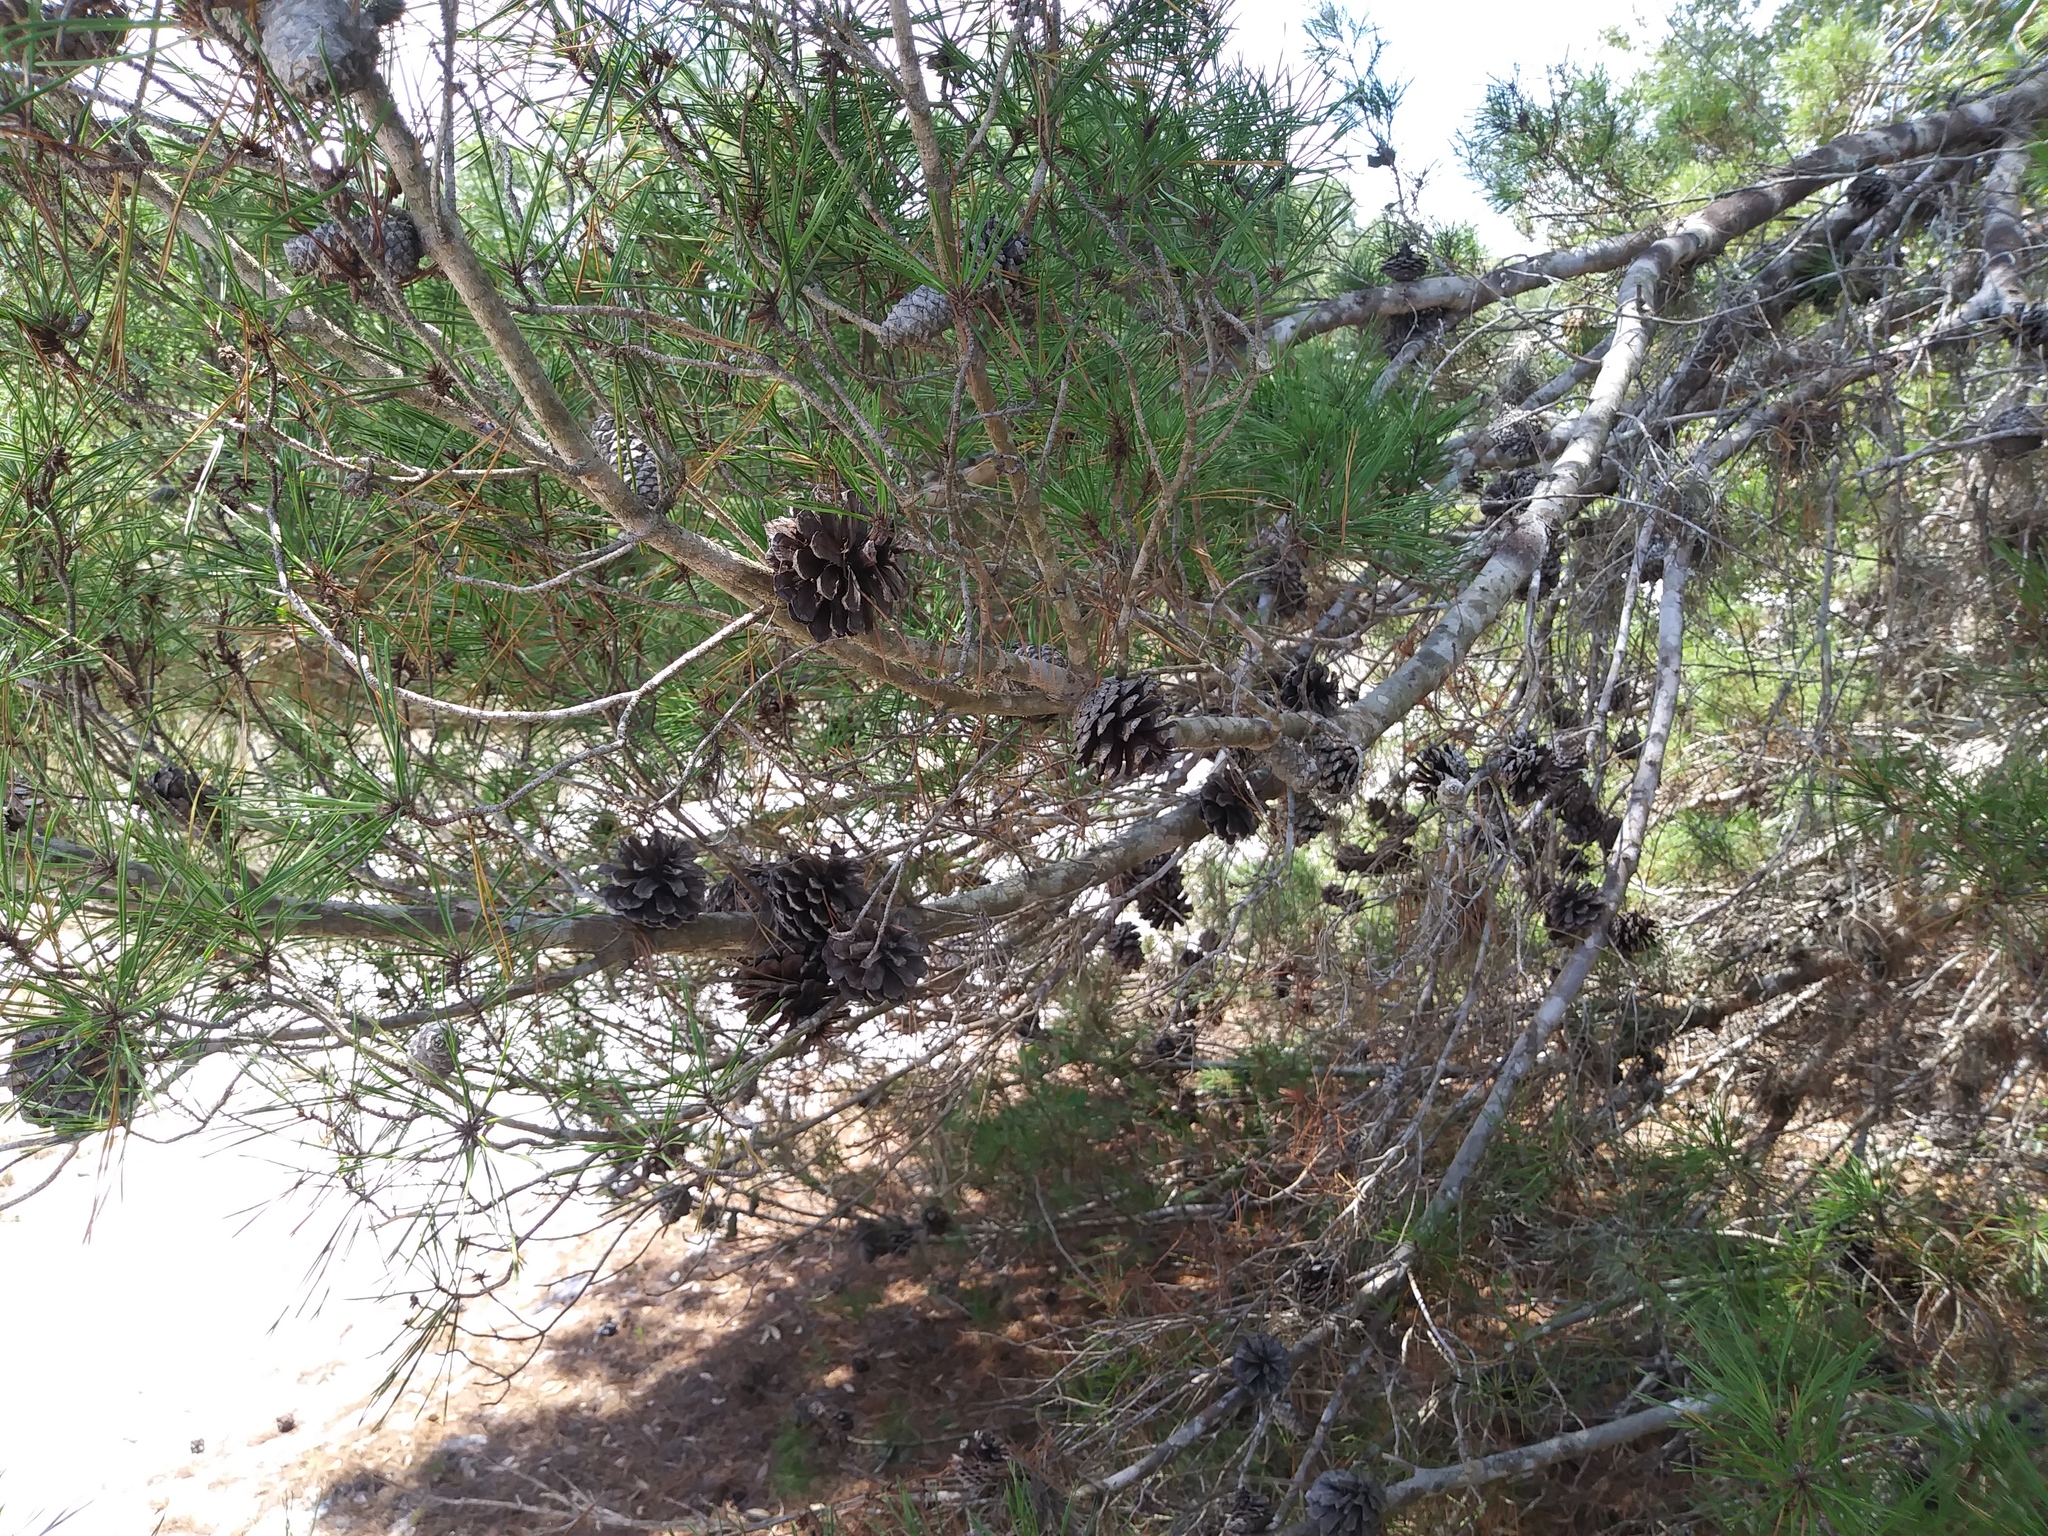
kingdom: Plantae
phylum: Tracheophyta
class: Pinopsida
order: Pinales
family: Pinaceae
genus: Pinus
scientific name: Pinus clausa
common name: Sand pine
